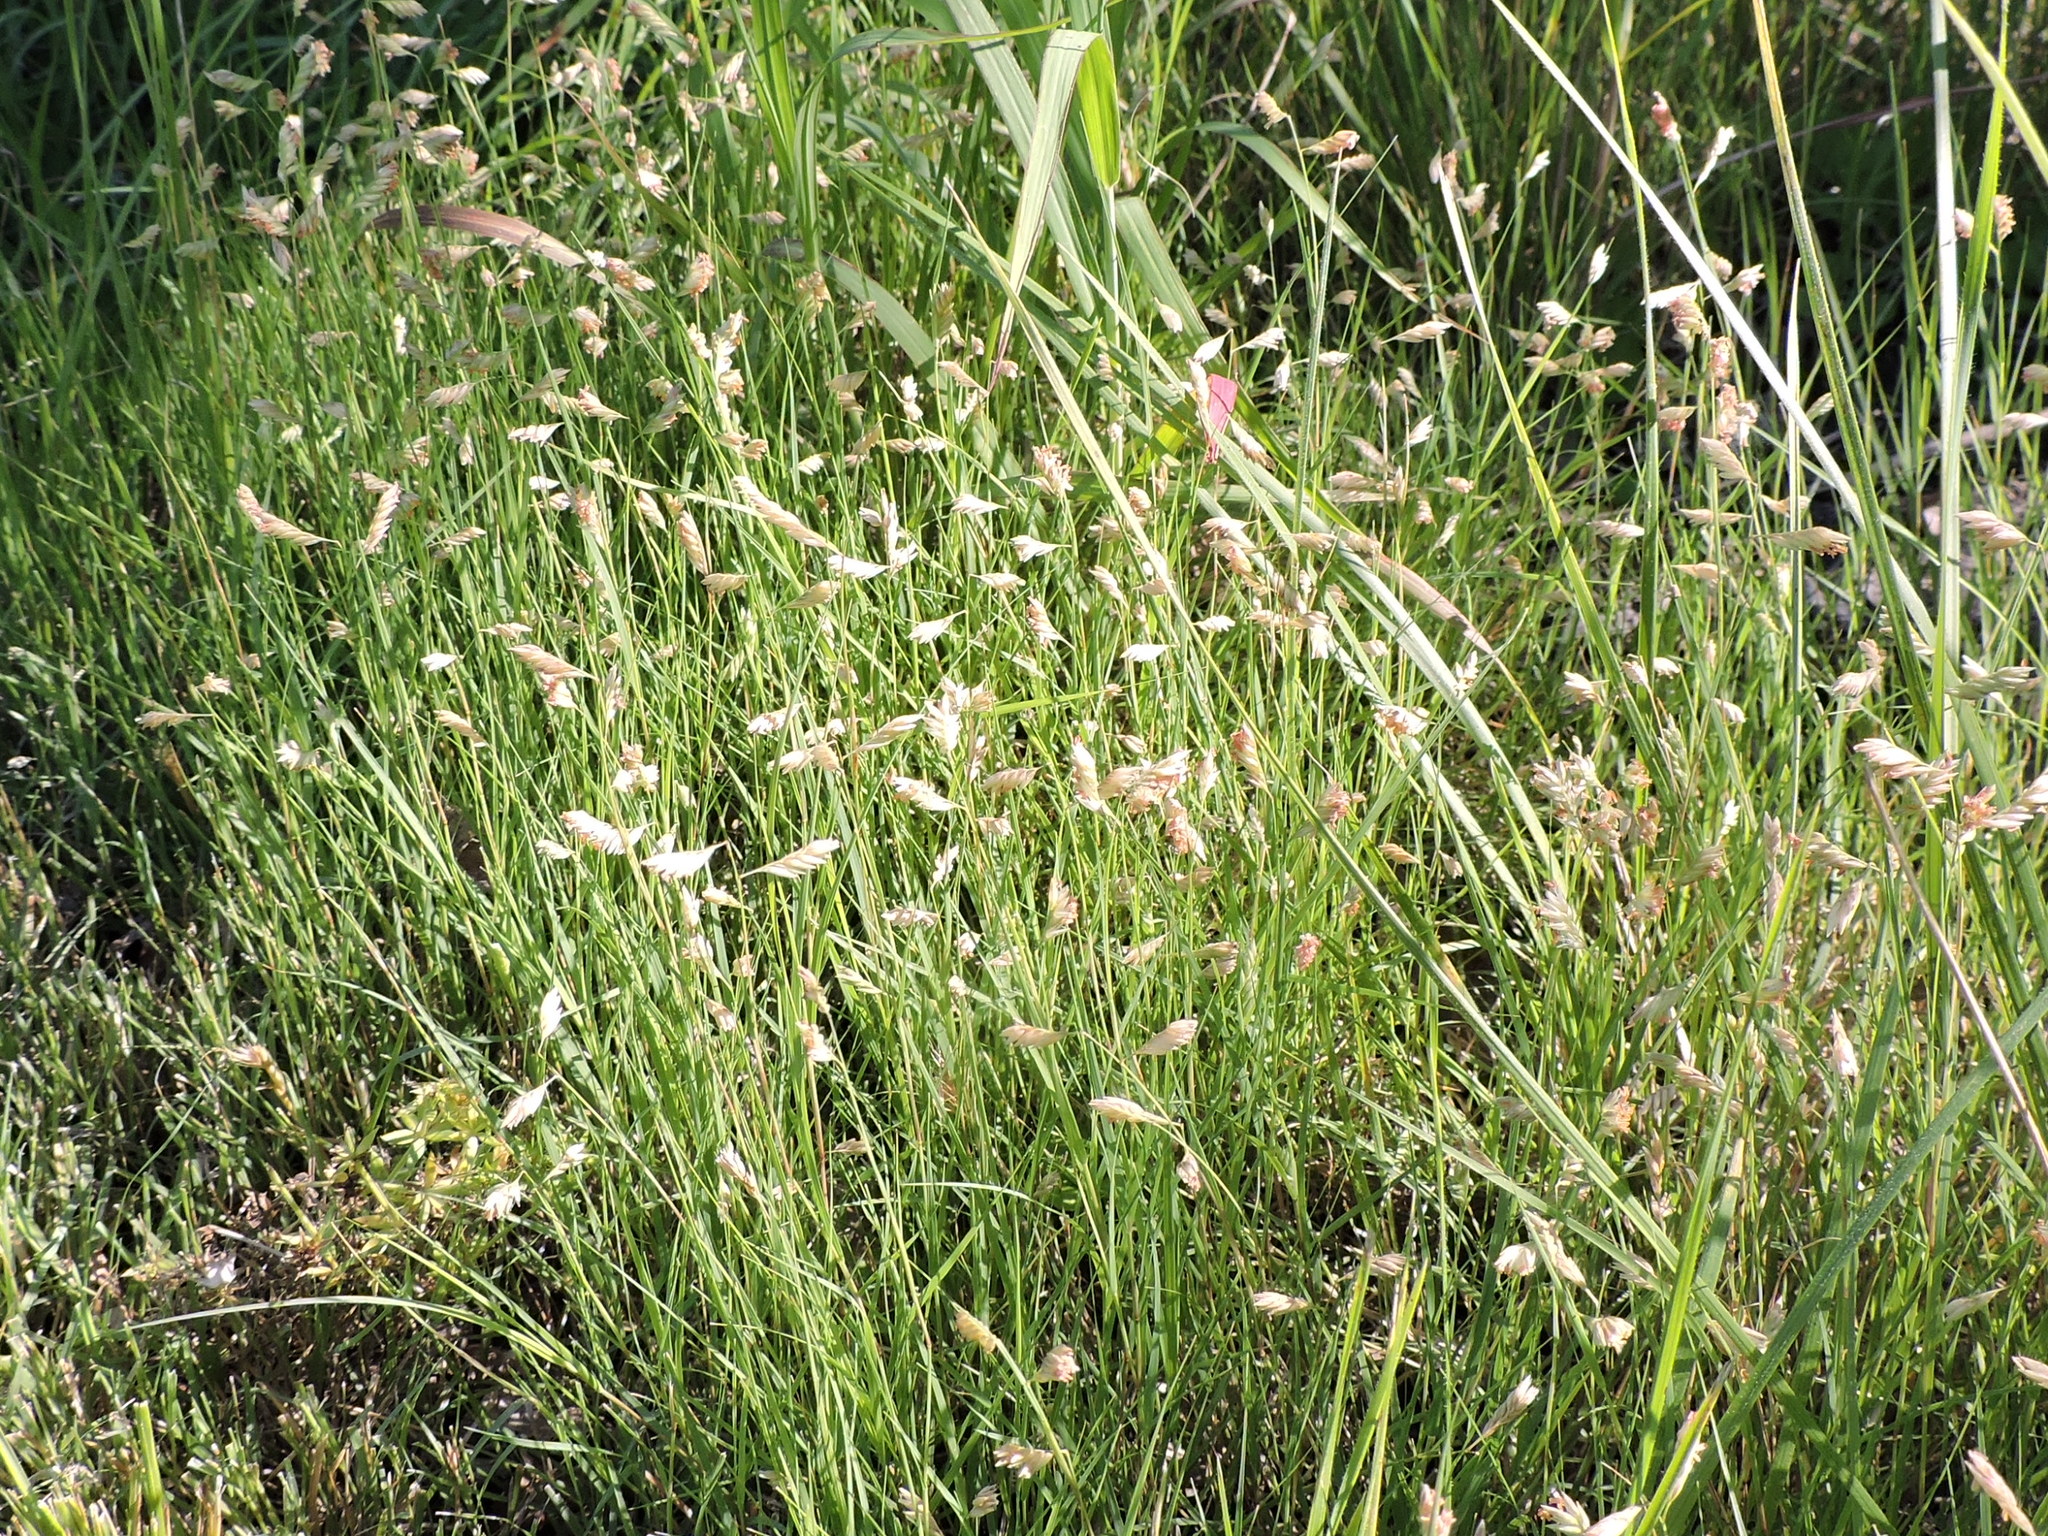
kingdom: Plantae
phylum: Tracheophyta
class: Liliopsida
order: Poales
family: Poaceae
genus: Bouteloua
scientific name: Bouteloua dactyloides
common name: Buffalo grass
